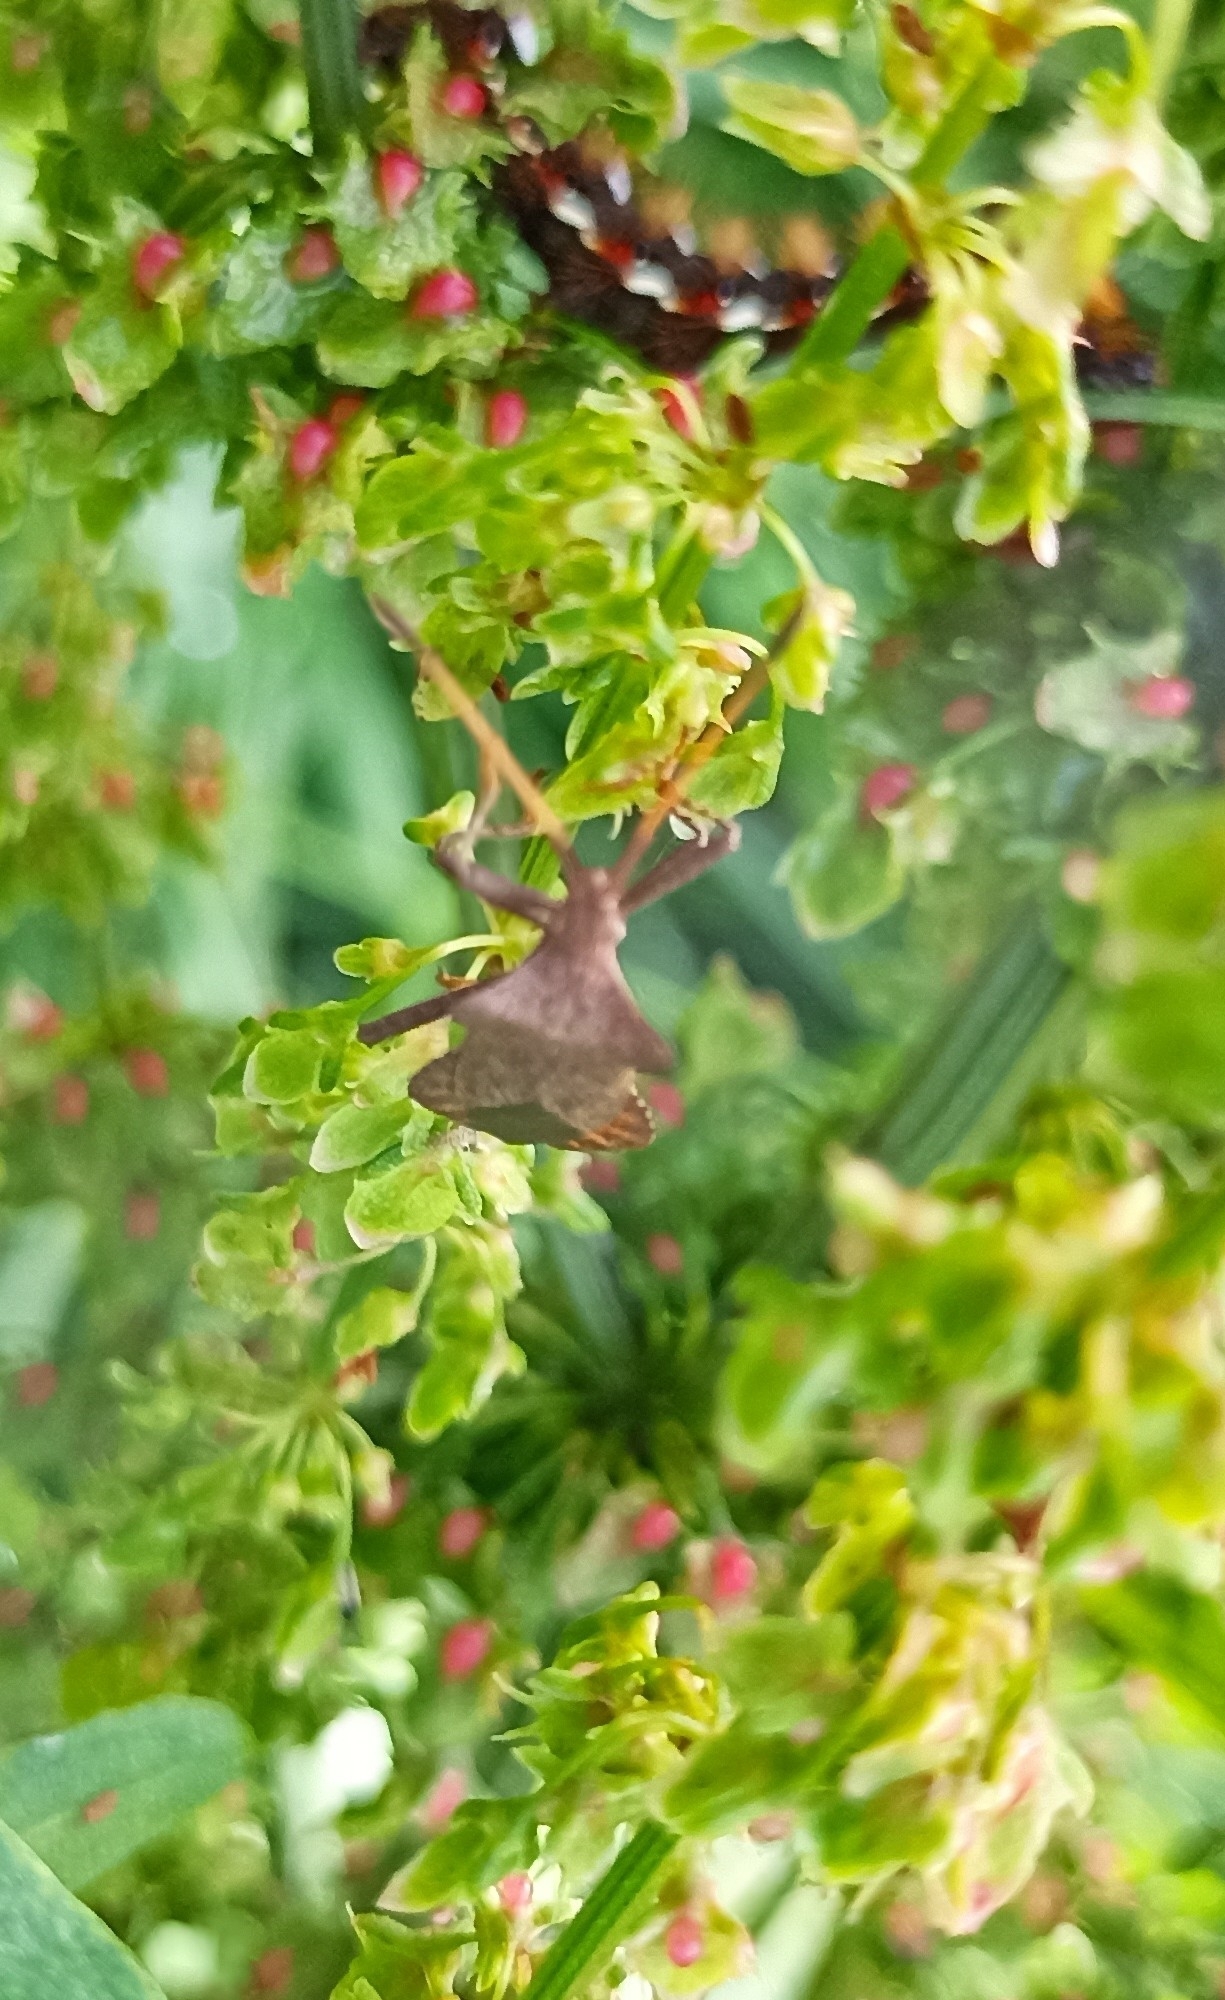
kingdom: Animalia
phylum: Arthropoda
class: Insecta
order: Hemiptera
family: Coreidae
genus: Coreus
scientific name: Coreus marginatus
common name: Dock bug
